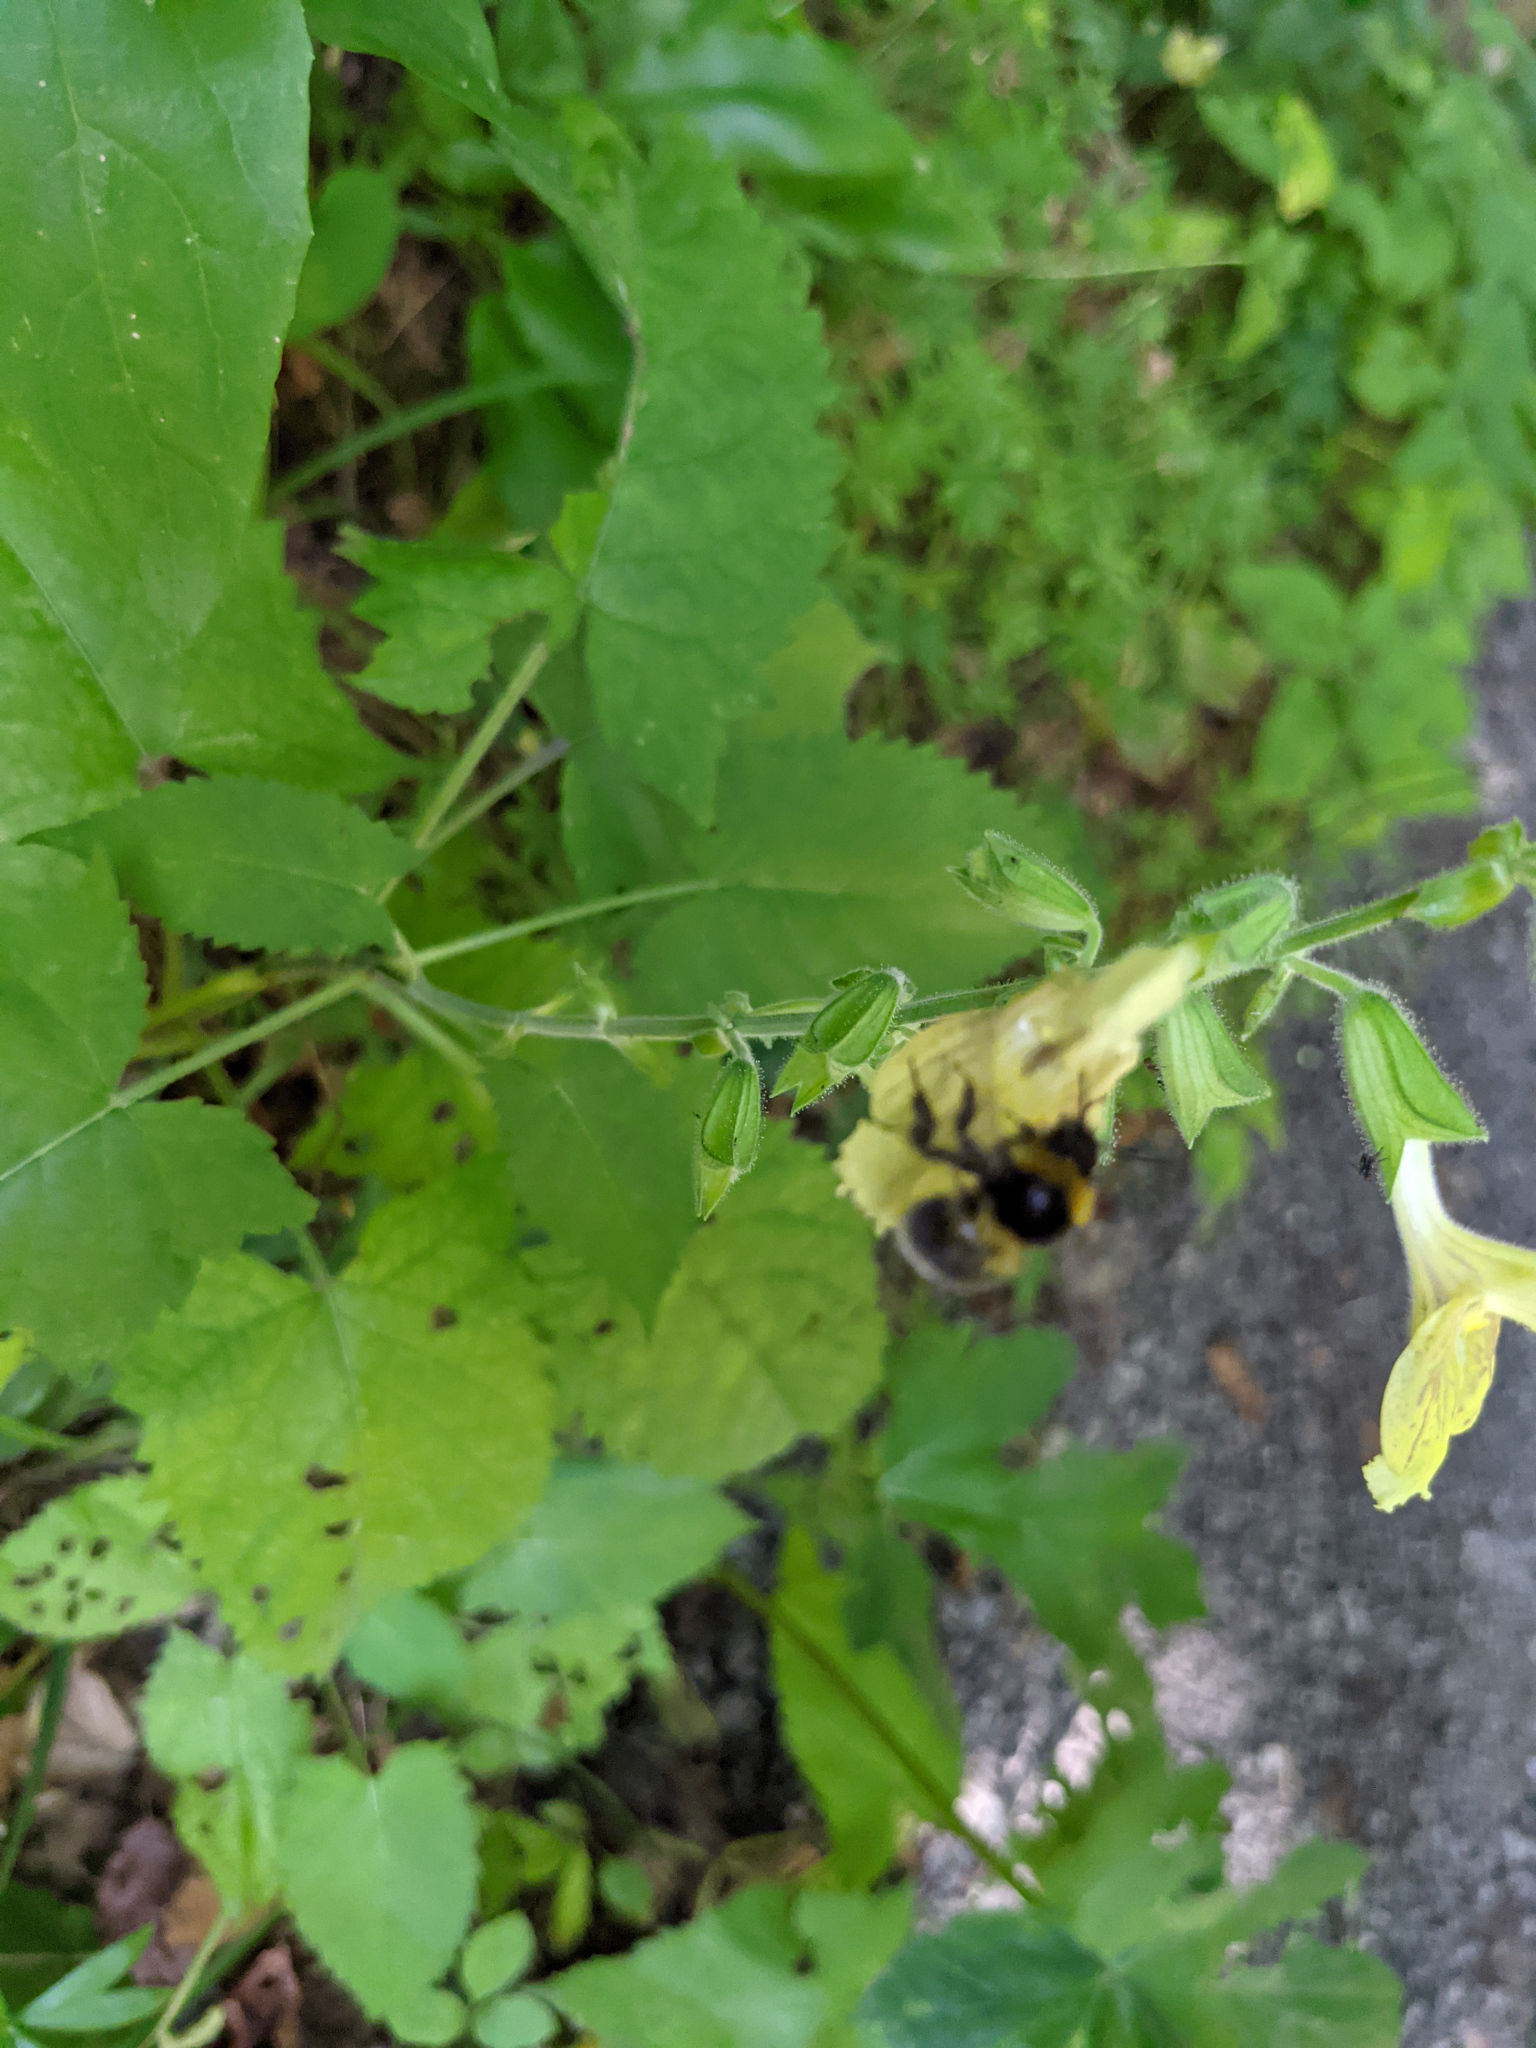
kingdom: Animalia
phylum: Arthropoda
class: Insecta
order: Hymenoptera
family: Apidae
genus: Bombus
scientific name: Bombus hortorum
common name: Garden bumblebee
